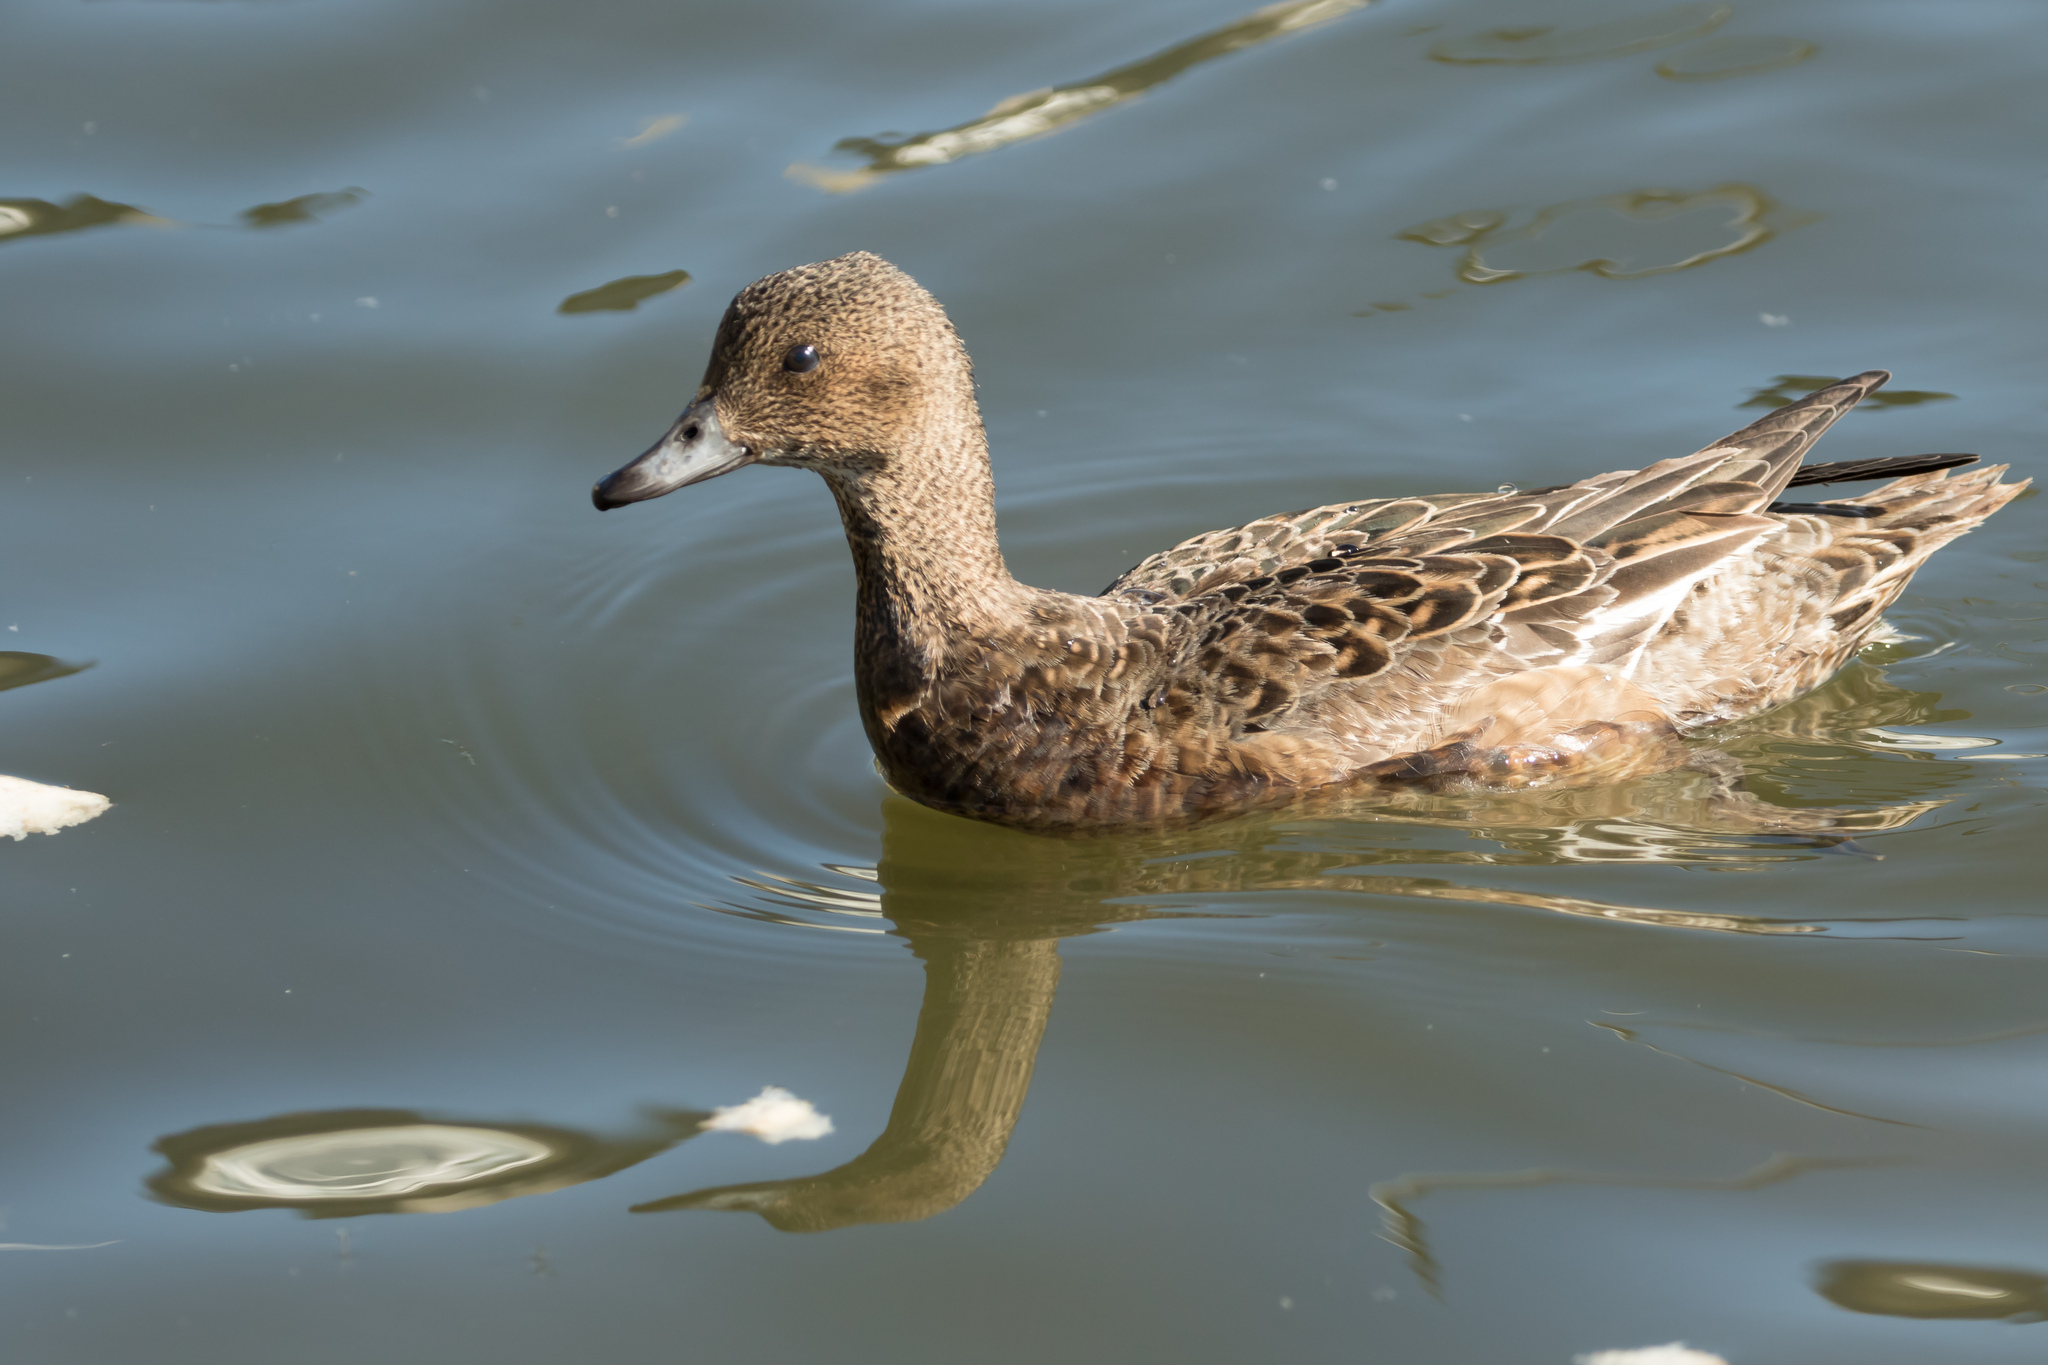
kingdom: Animalia
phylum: Chordata
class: Aves
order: Anseriformes
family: Anatidae
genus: Mareca
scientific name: Mareca penelope
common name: Eurasian wigeon
